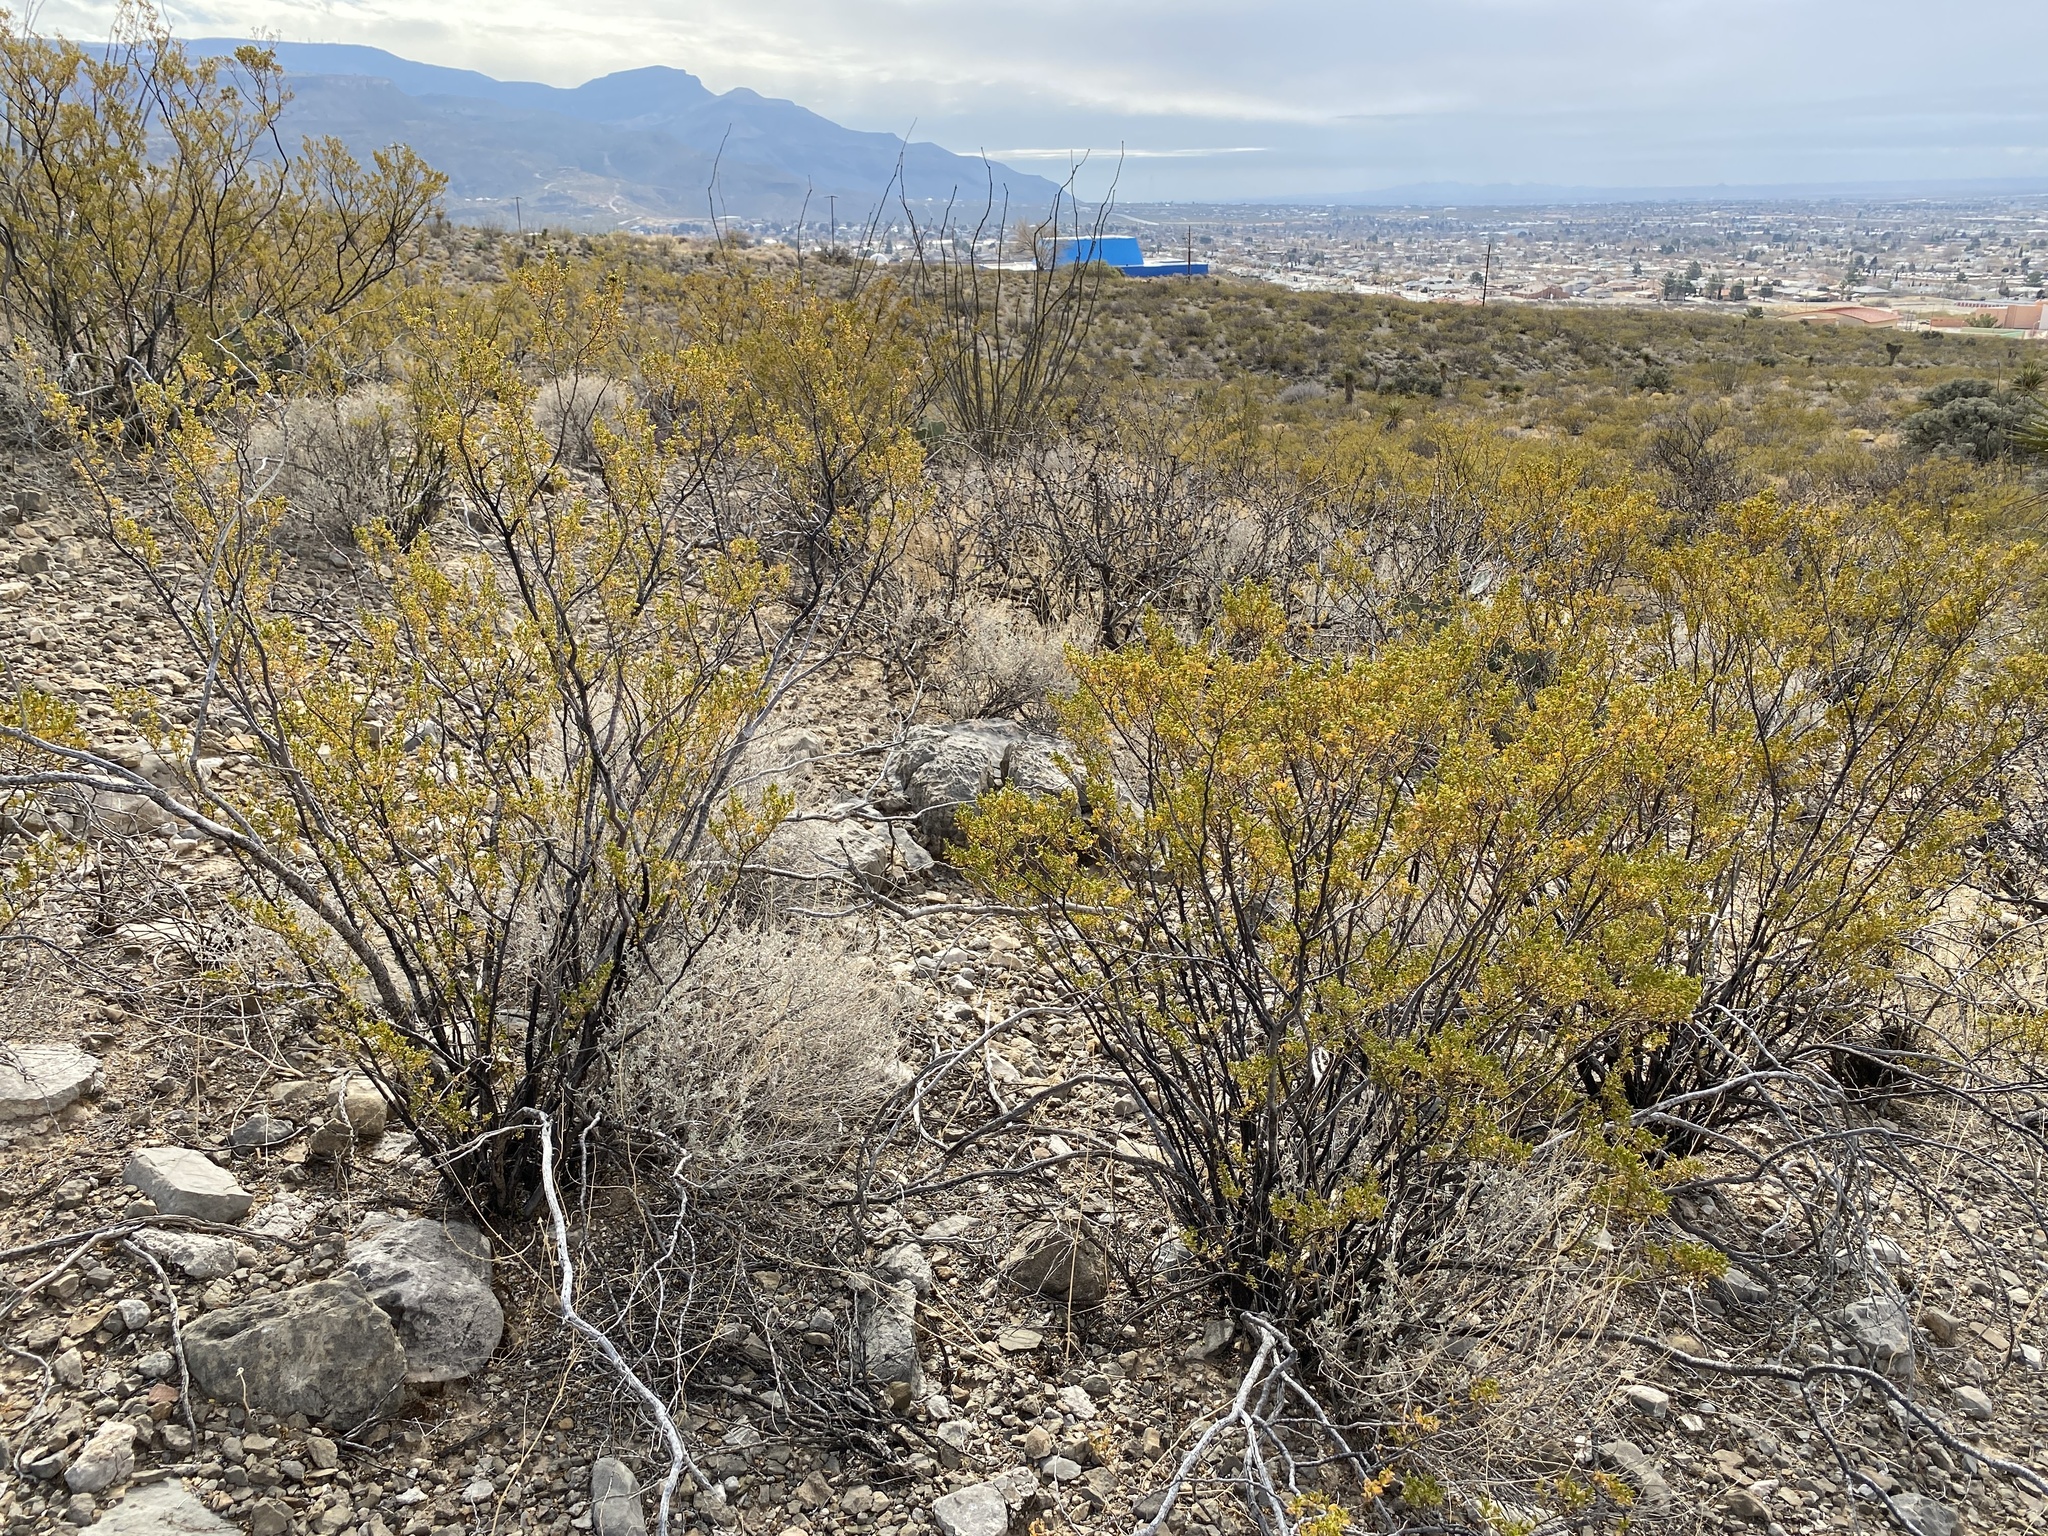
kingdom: Plantae
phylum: Tracheophyta
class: Magnoliopsida
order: Zygophyllales
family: Zygophyllaceae
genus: Larrea
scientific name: Larrea tridentata
